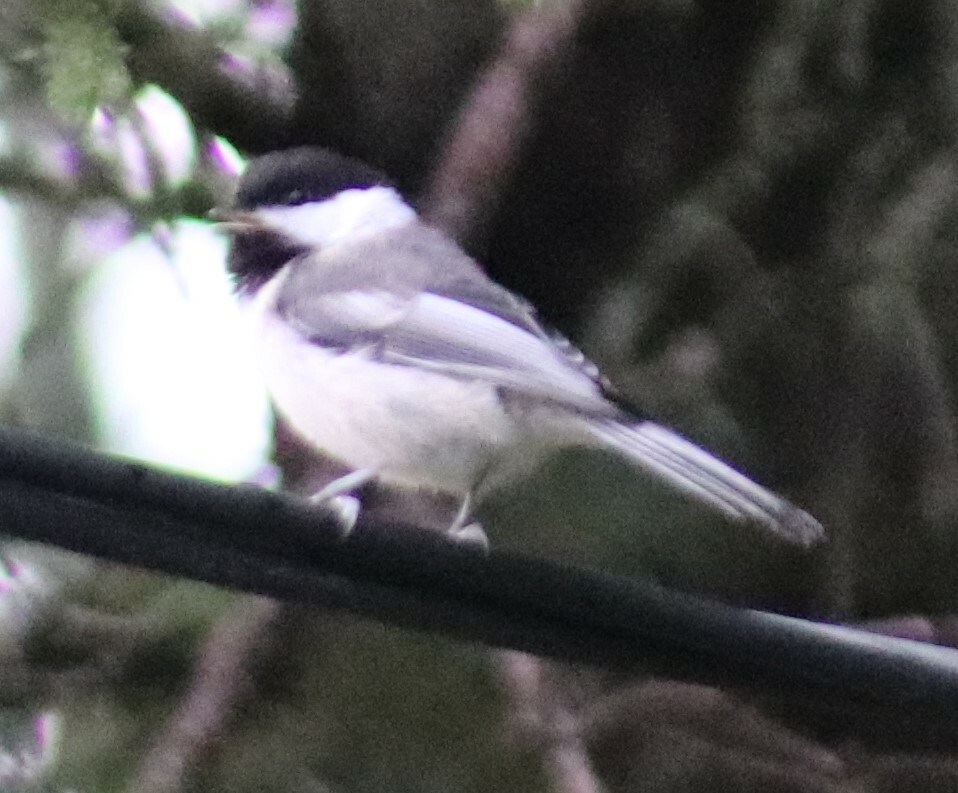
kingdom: Animalia
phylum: Chordata
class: Aves
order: Passeriformes
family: Paridae
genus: Poecile
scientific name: Poecile atricapillus
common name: Black-capped chickadee
